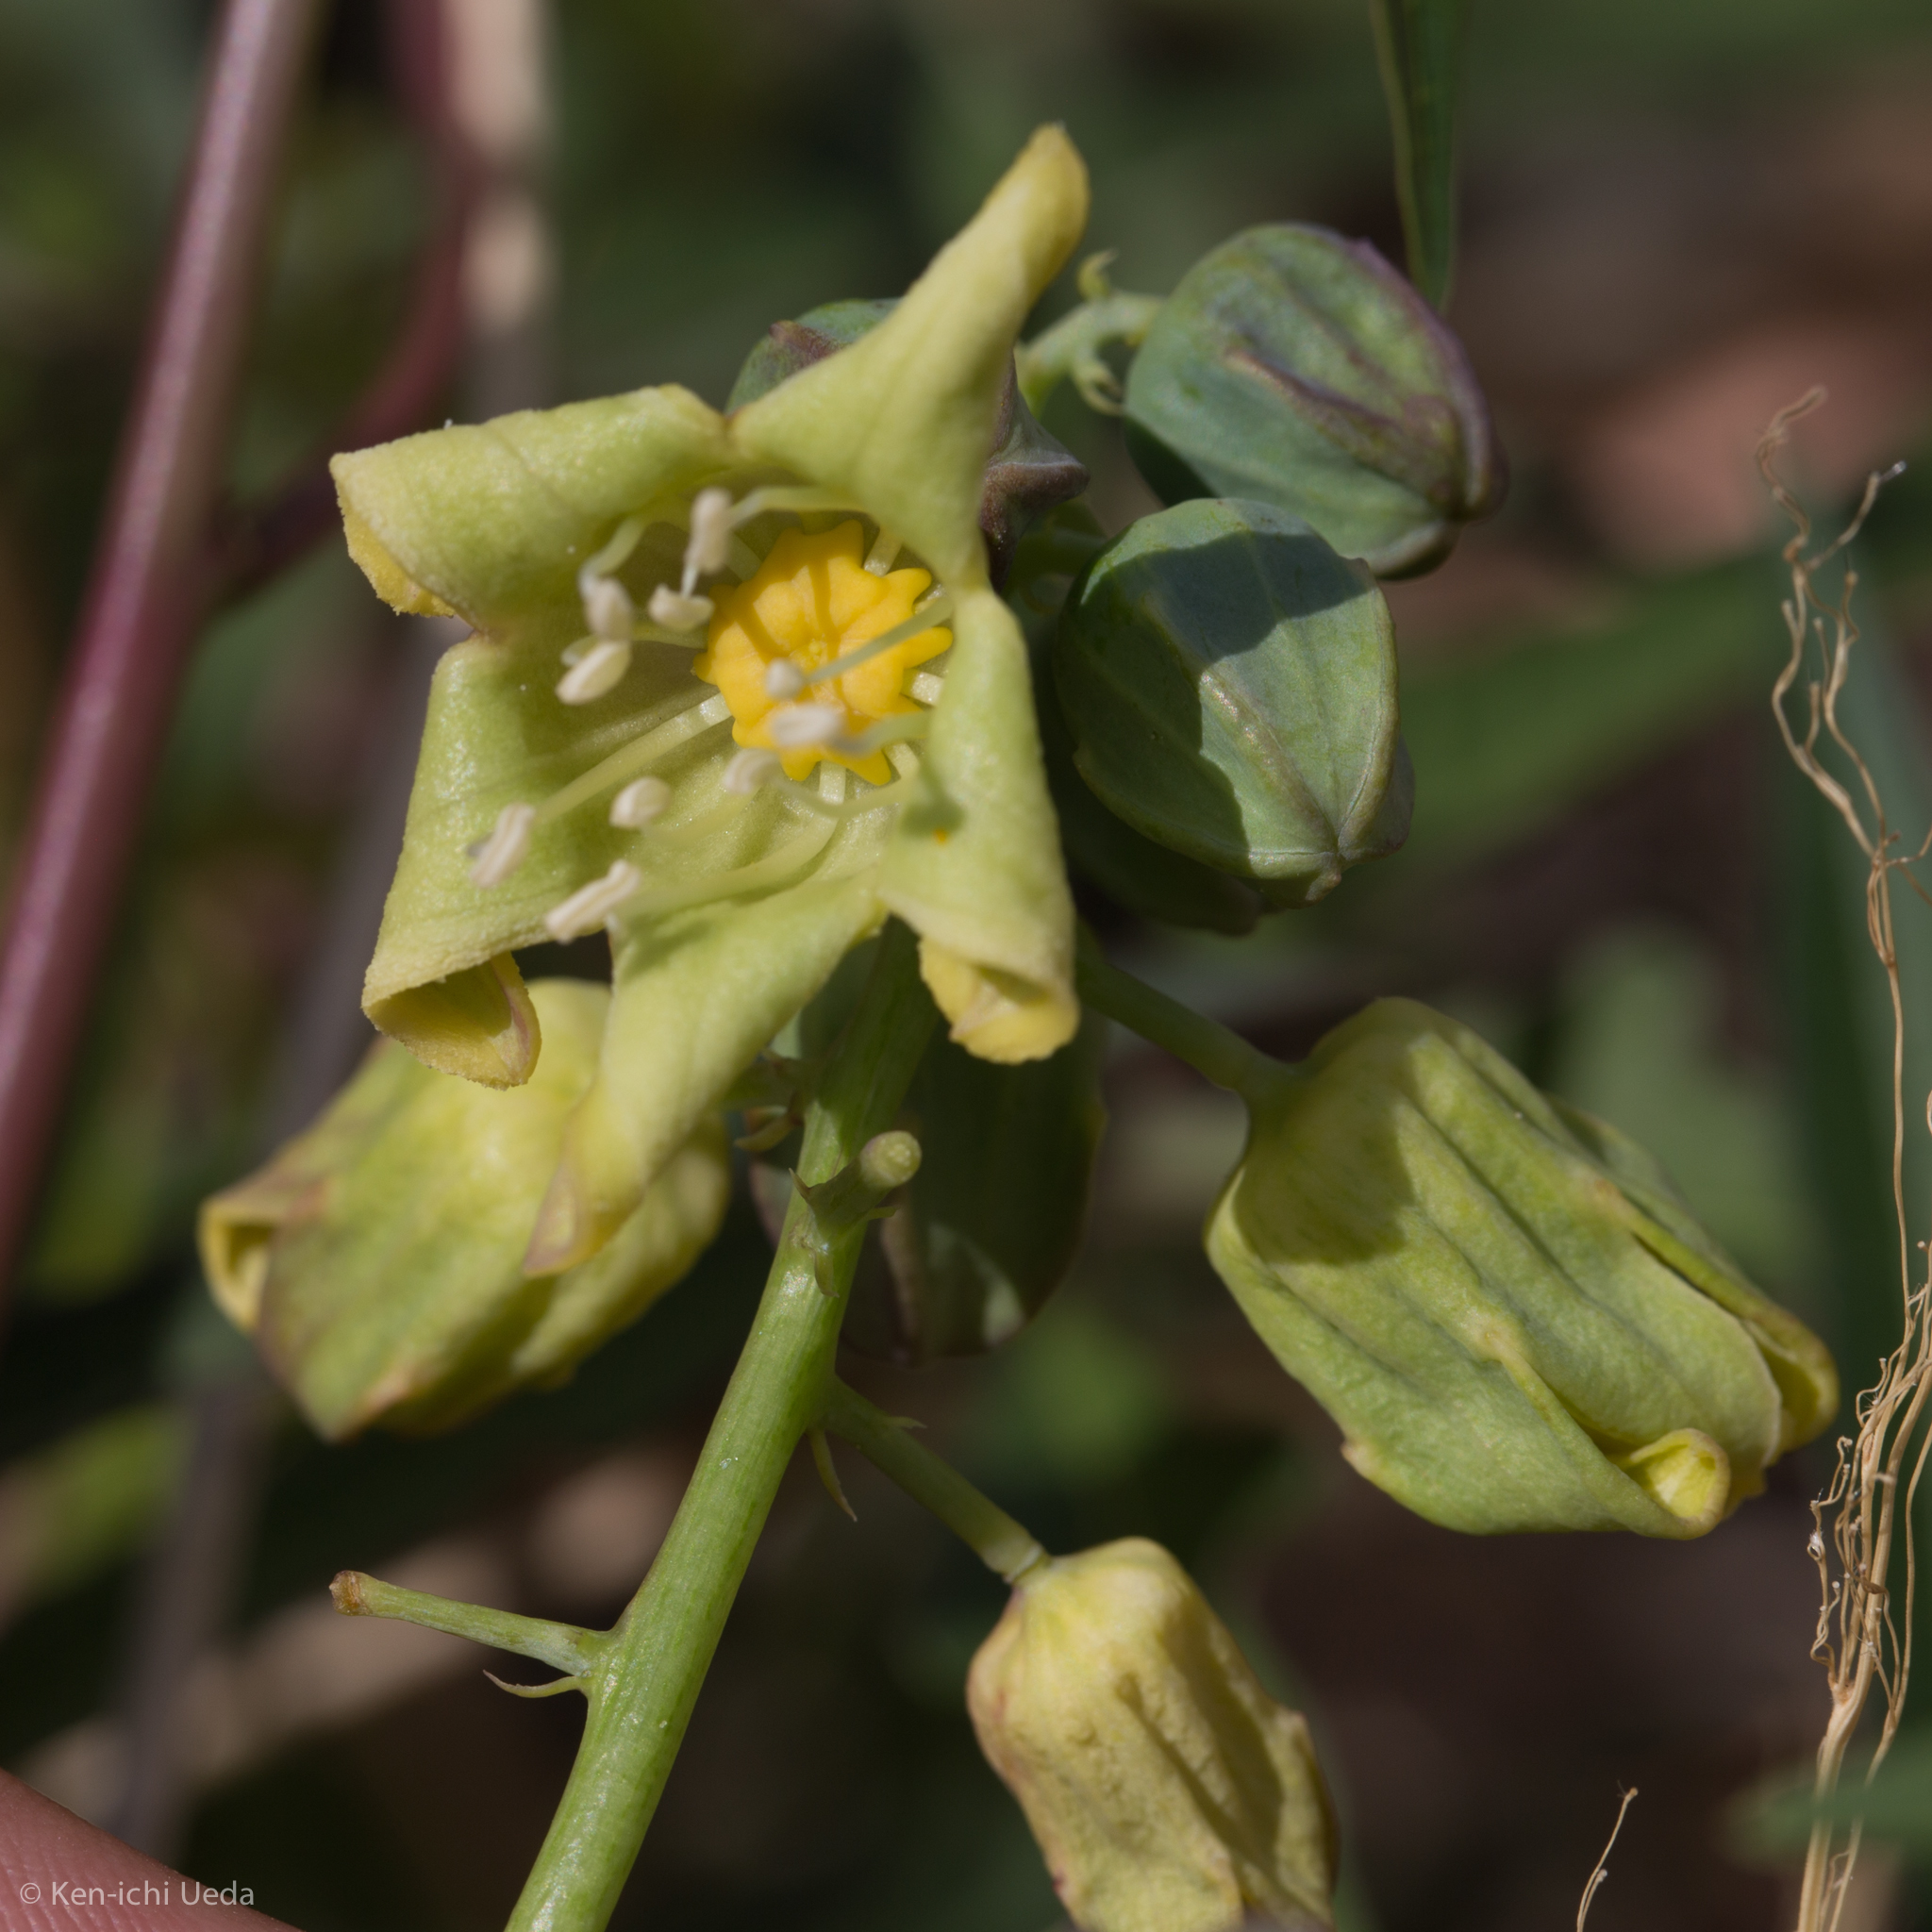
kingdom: Plantae
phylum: Tracheophyta
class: Magnoliopsida
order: Malpighiales
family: Euphorbiaceae
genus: Manihot
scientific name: Manihot angustiloba
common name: Desert mountain manihot
